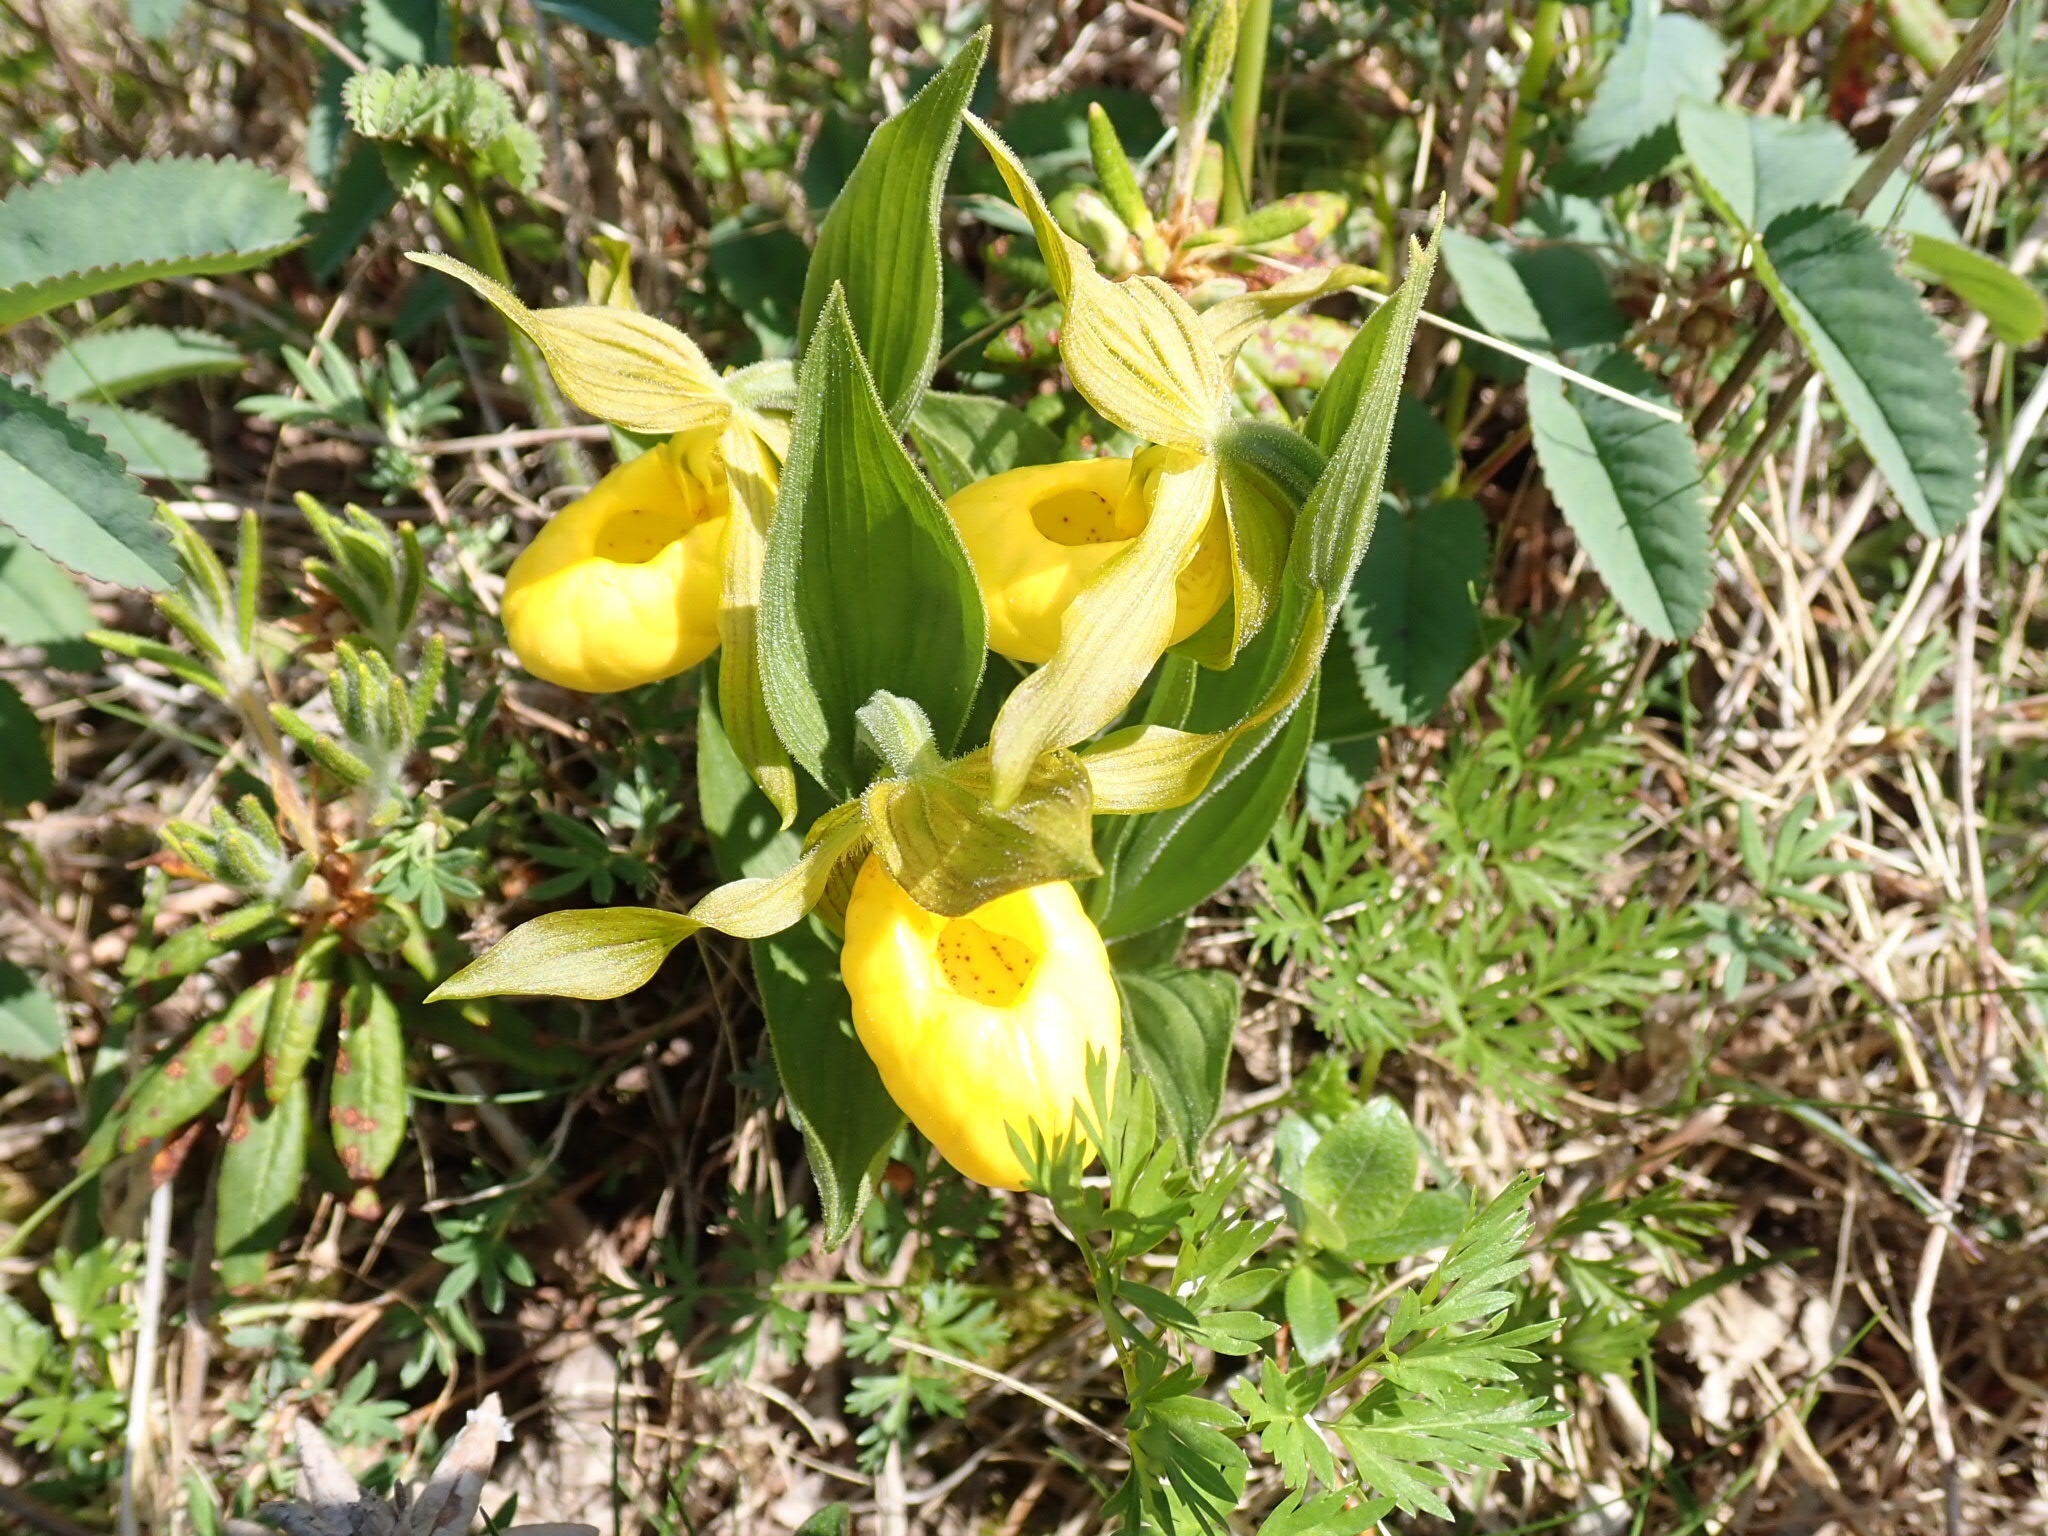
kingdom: Plantae
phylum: Tracheophyta
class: Liliopsida
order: Asparagales
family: Orchidaceae
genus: Cypripedium
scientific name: Cypripedium parviflorum
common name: American yellow lady's-slipper
